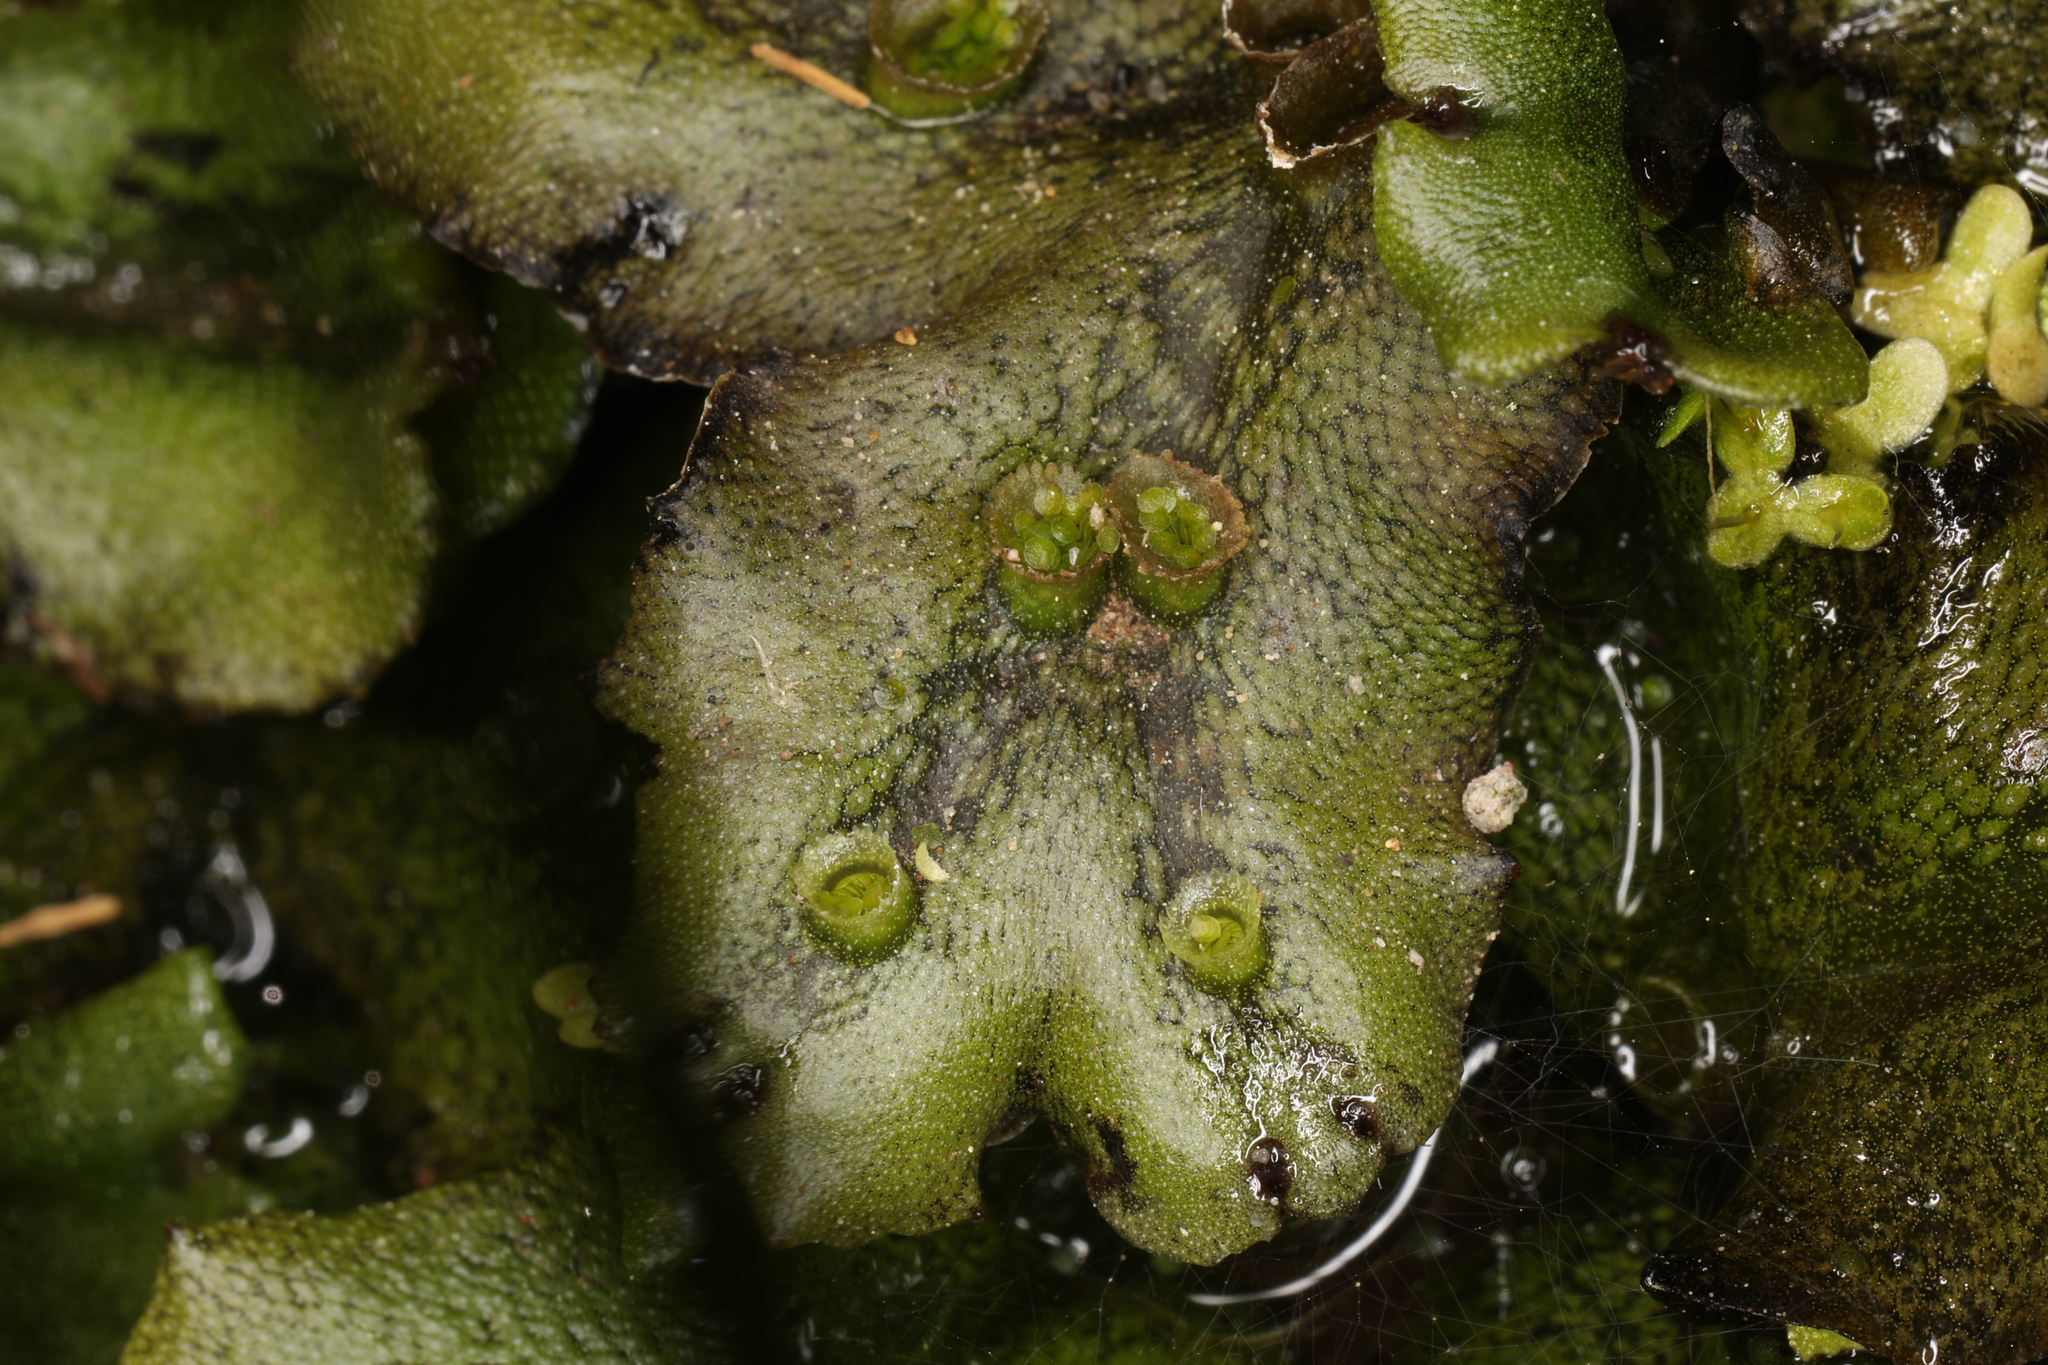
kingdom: Plantae
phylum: Marchantiophyta
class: Marchantiopsida
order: Marchantiales
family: Marchantiaceae
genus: Marchantia
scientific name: Marchantia polymorpha
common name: Common liverwort
